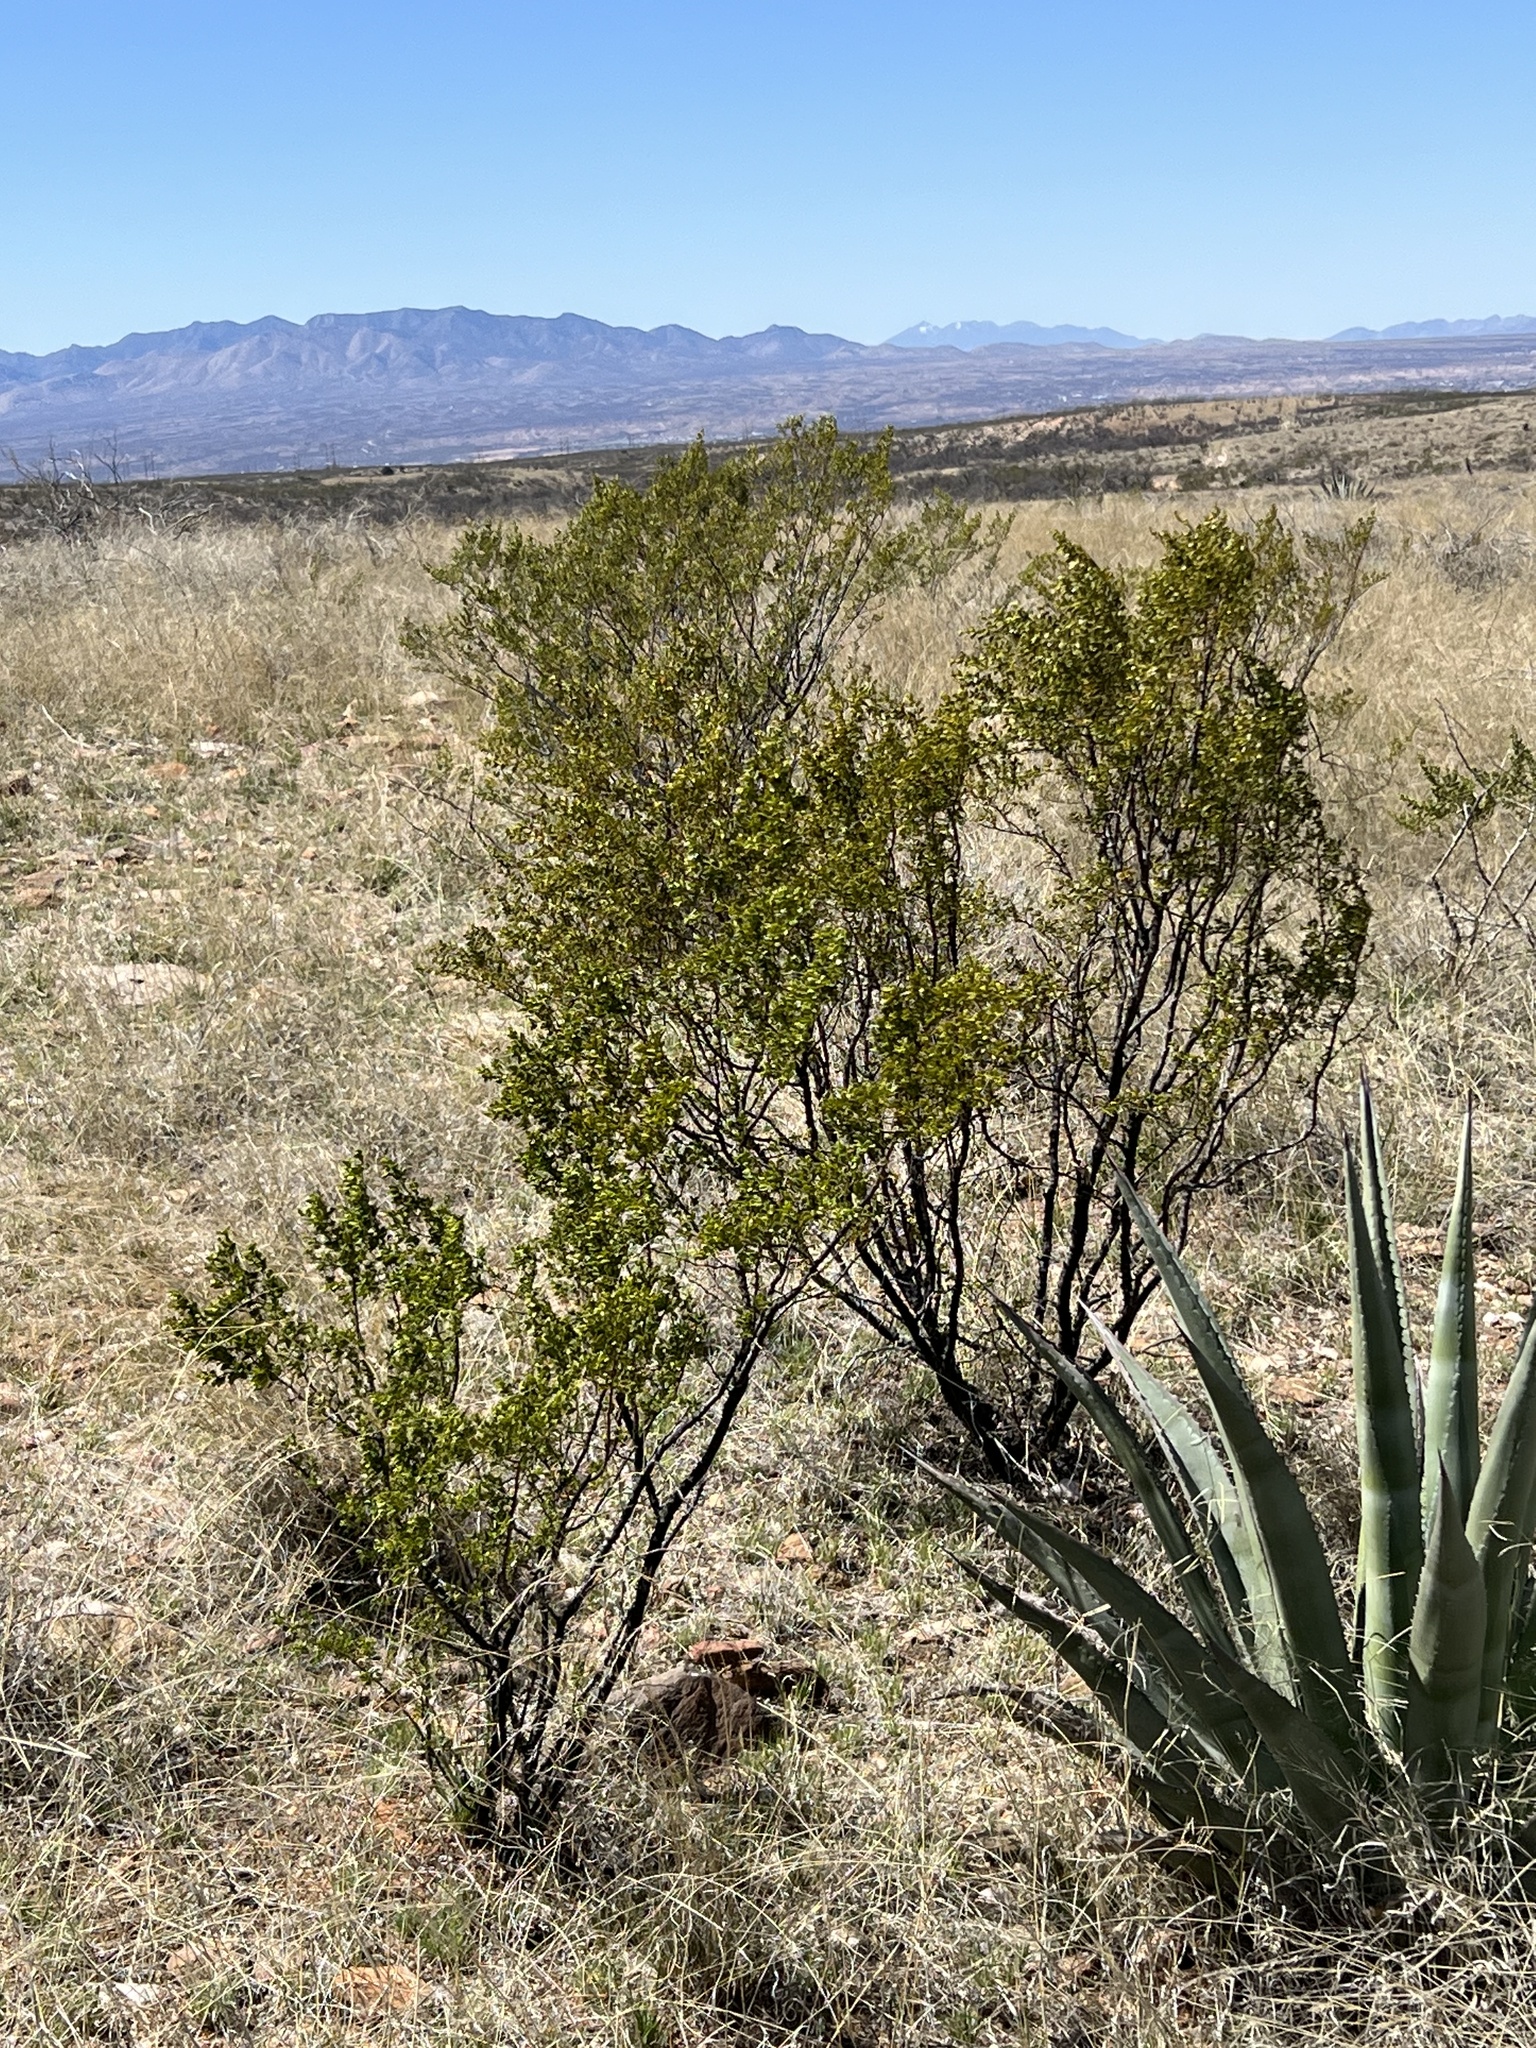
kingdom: Plantae
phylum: Tracheophyta
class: Magnoliopsida
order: Zygophyllales
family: Zygophyllaceae
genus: Larrea
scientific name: Larrea tridentata
